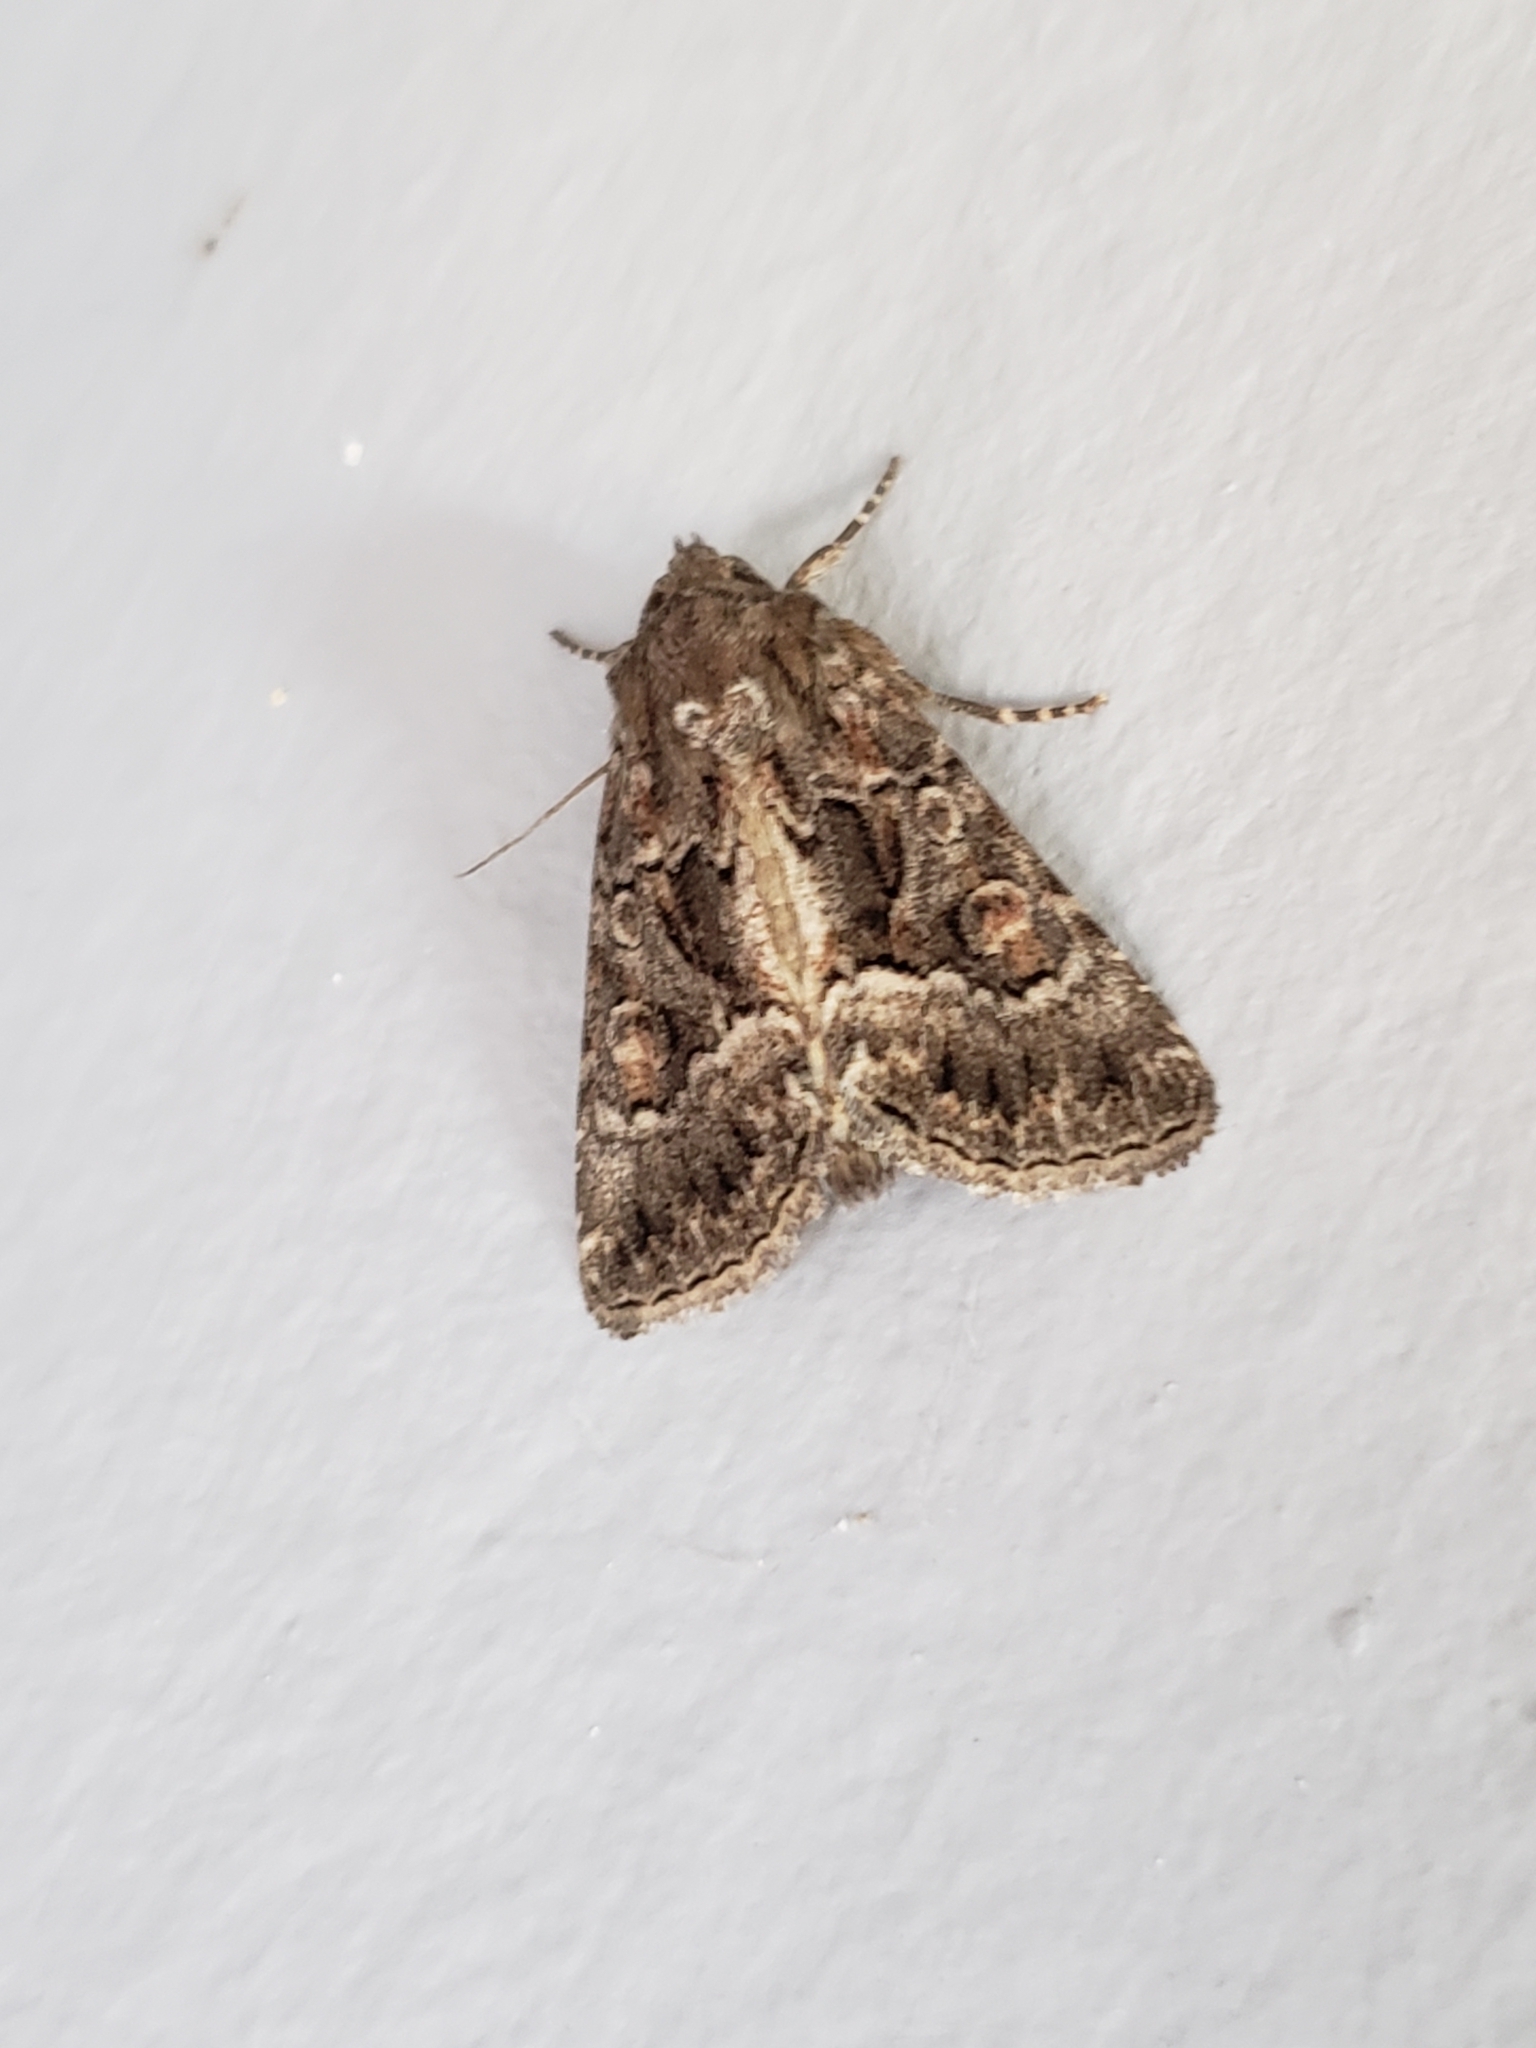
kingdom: Animalia
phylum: Arthropoda
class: Insecta
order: Lepidoptera
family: Noctuidae
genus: Thalpophila
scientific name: Thalpophila matura
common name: Straw underwing
